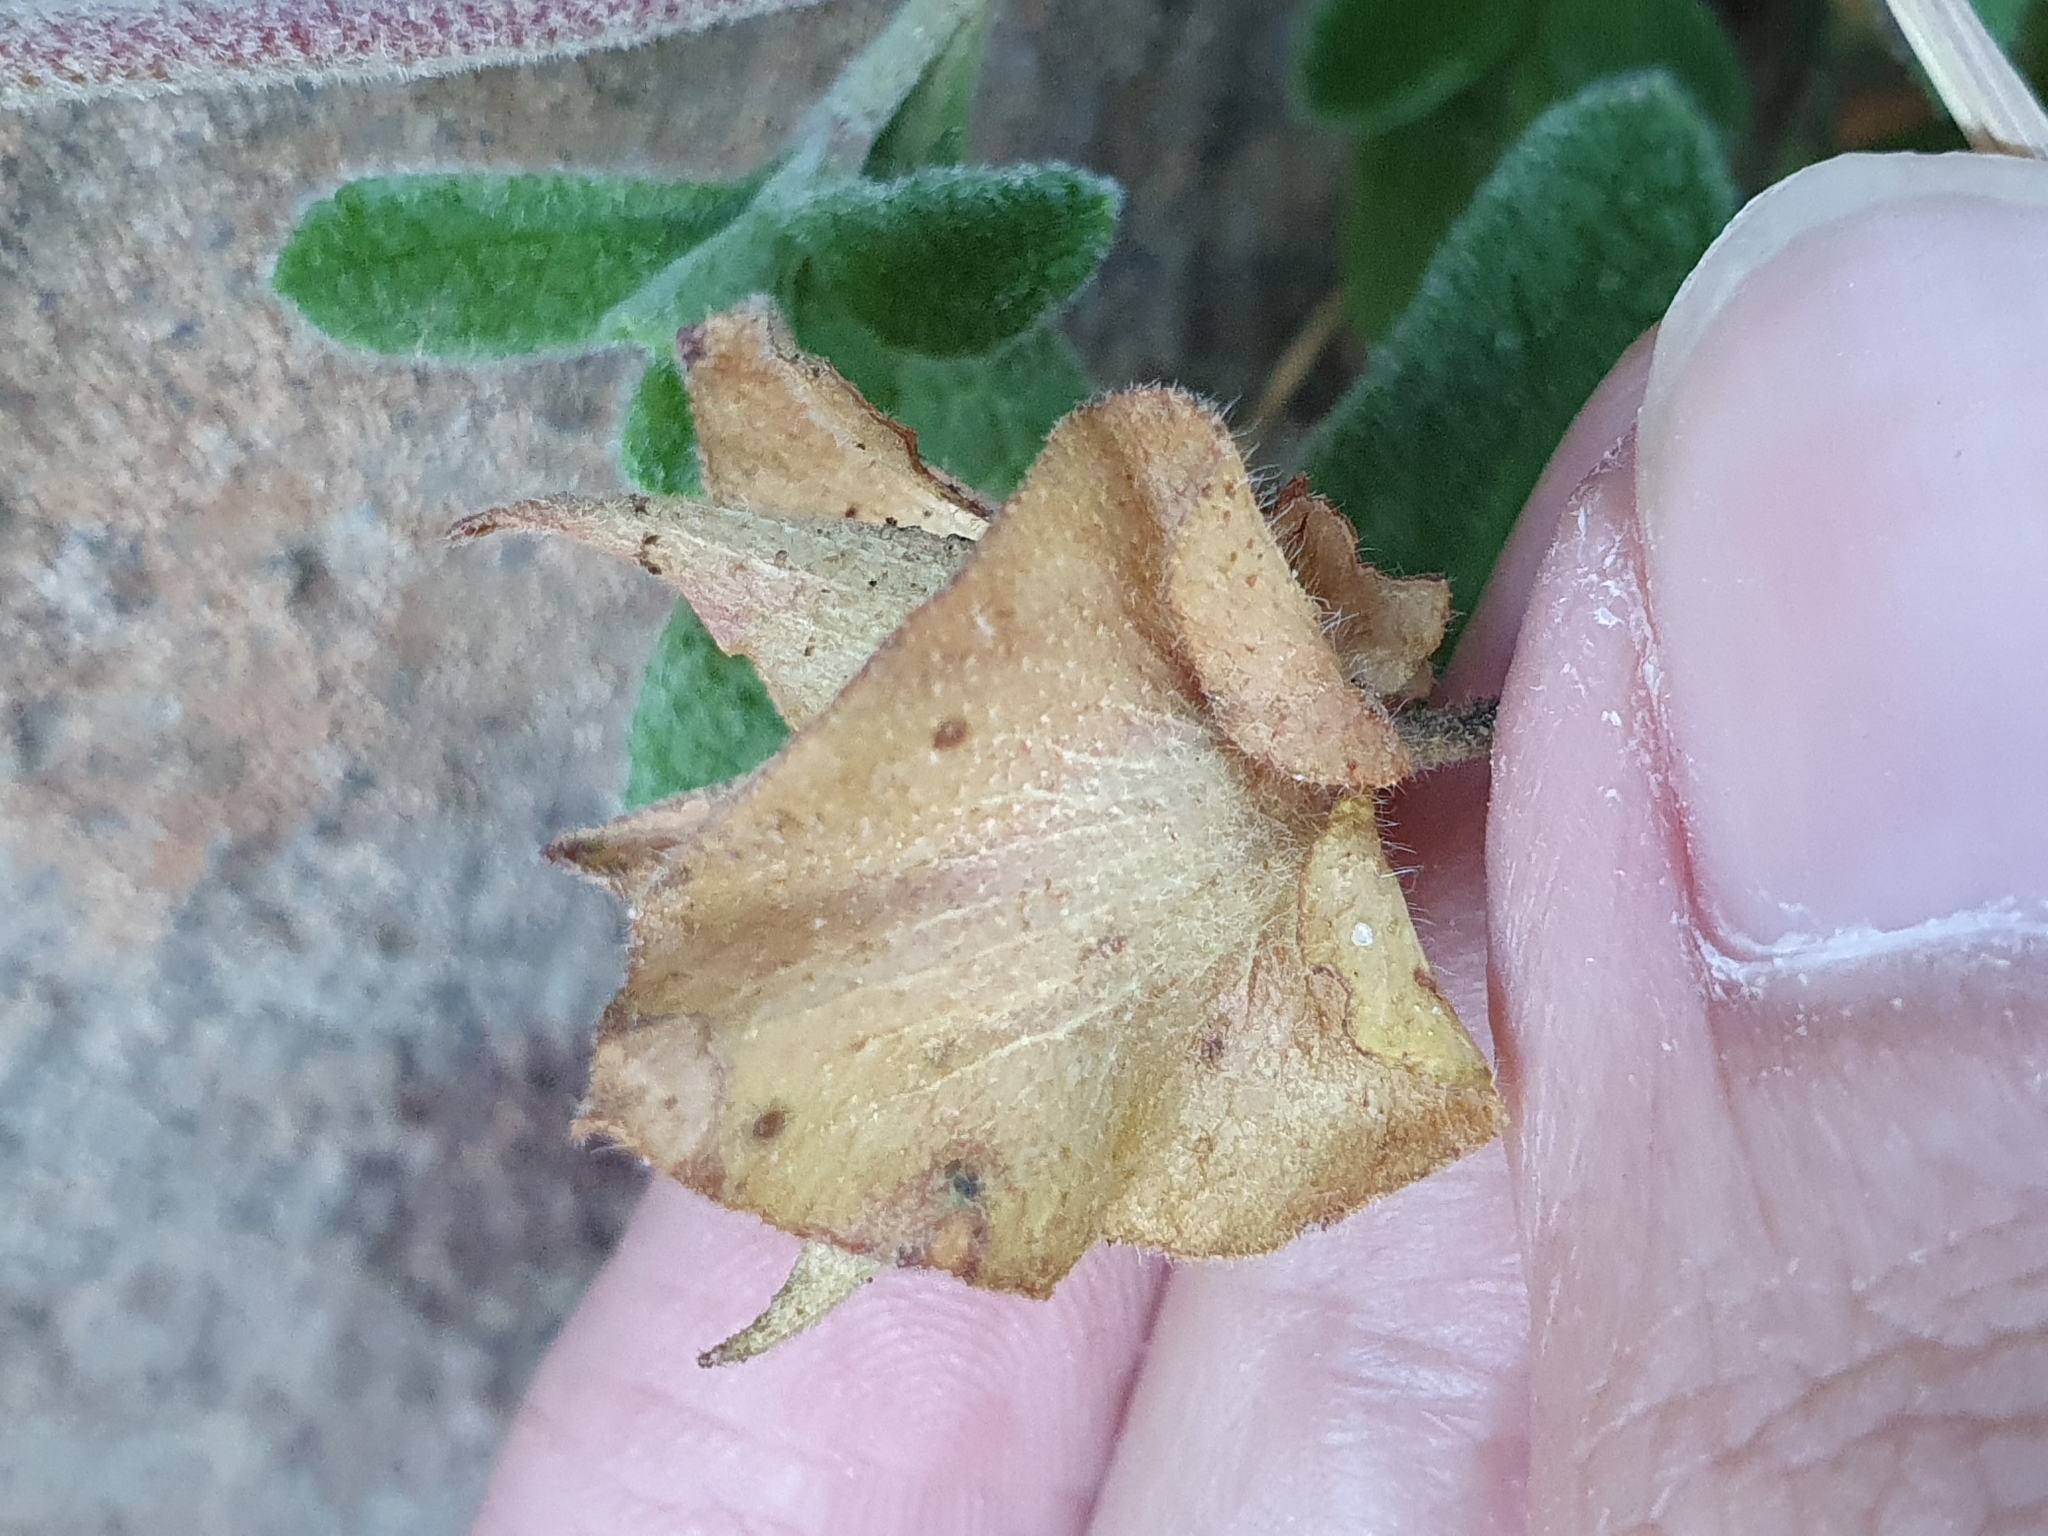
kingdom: Plantae
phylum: Tracheophyta
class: Magnoliopsida
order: Malvales
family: Cistaceae
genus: Cistus
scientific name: Cistus salviifolius
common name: Salvia cistus
